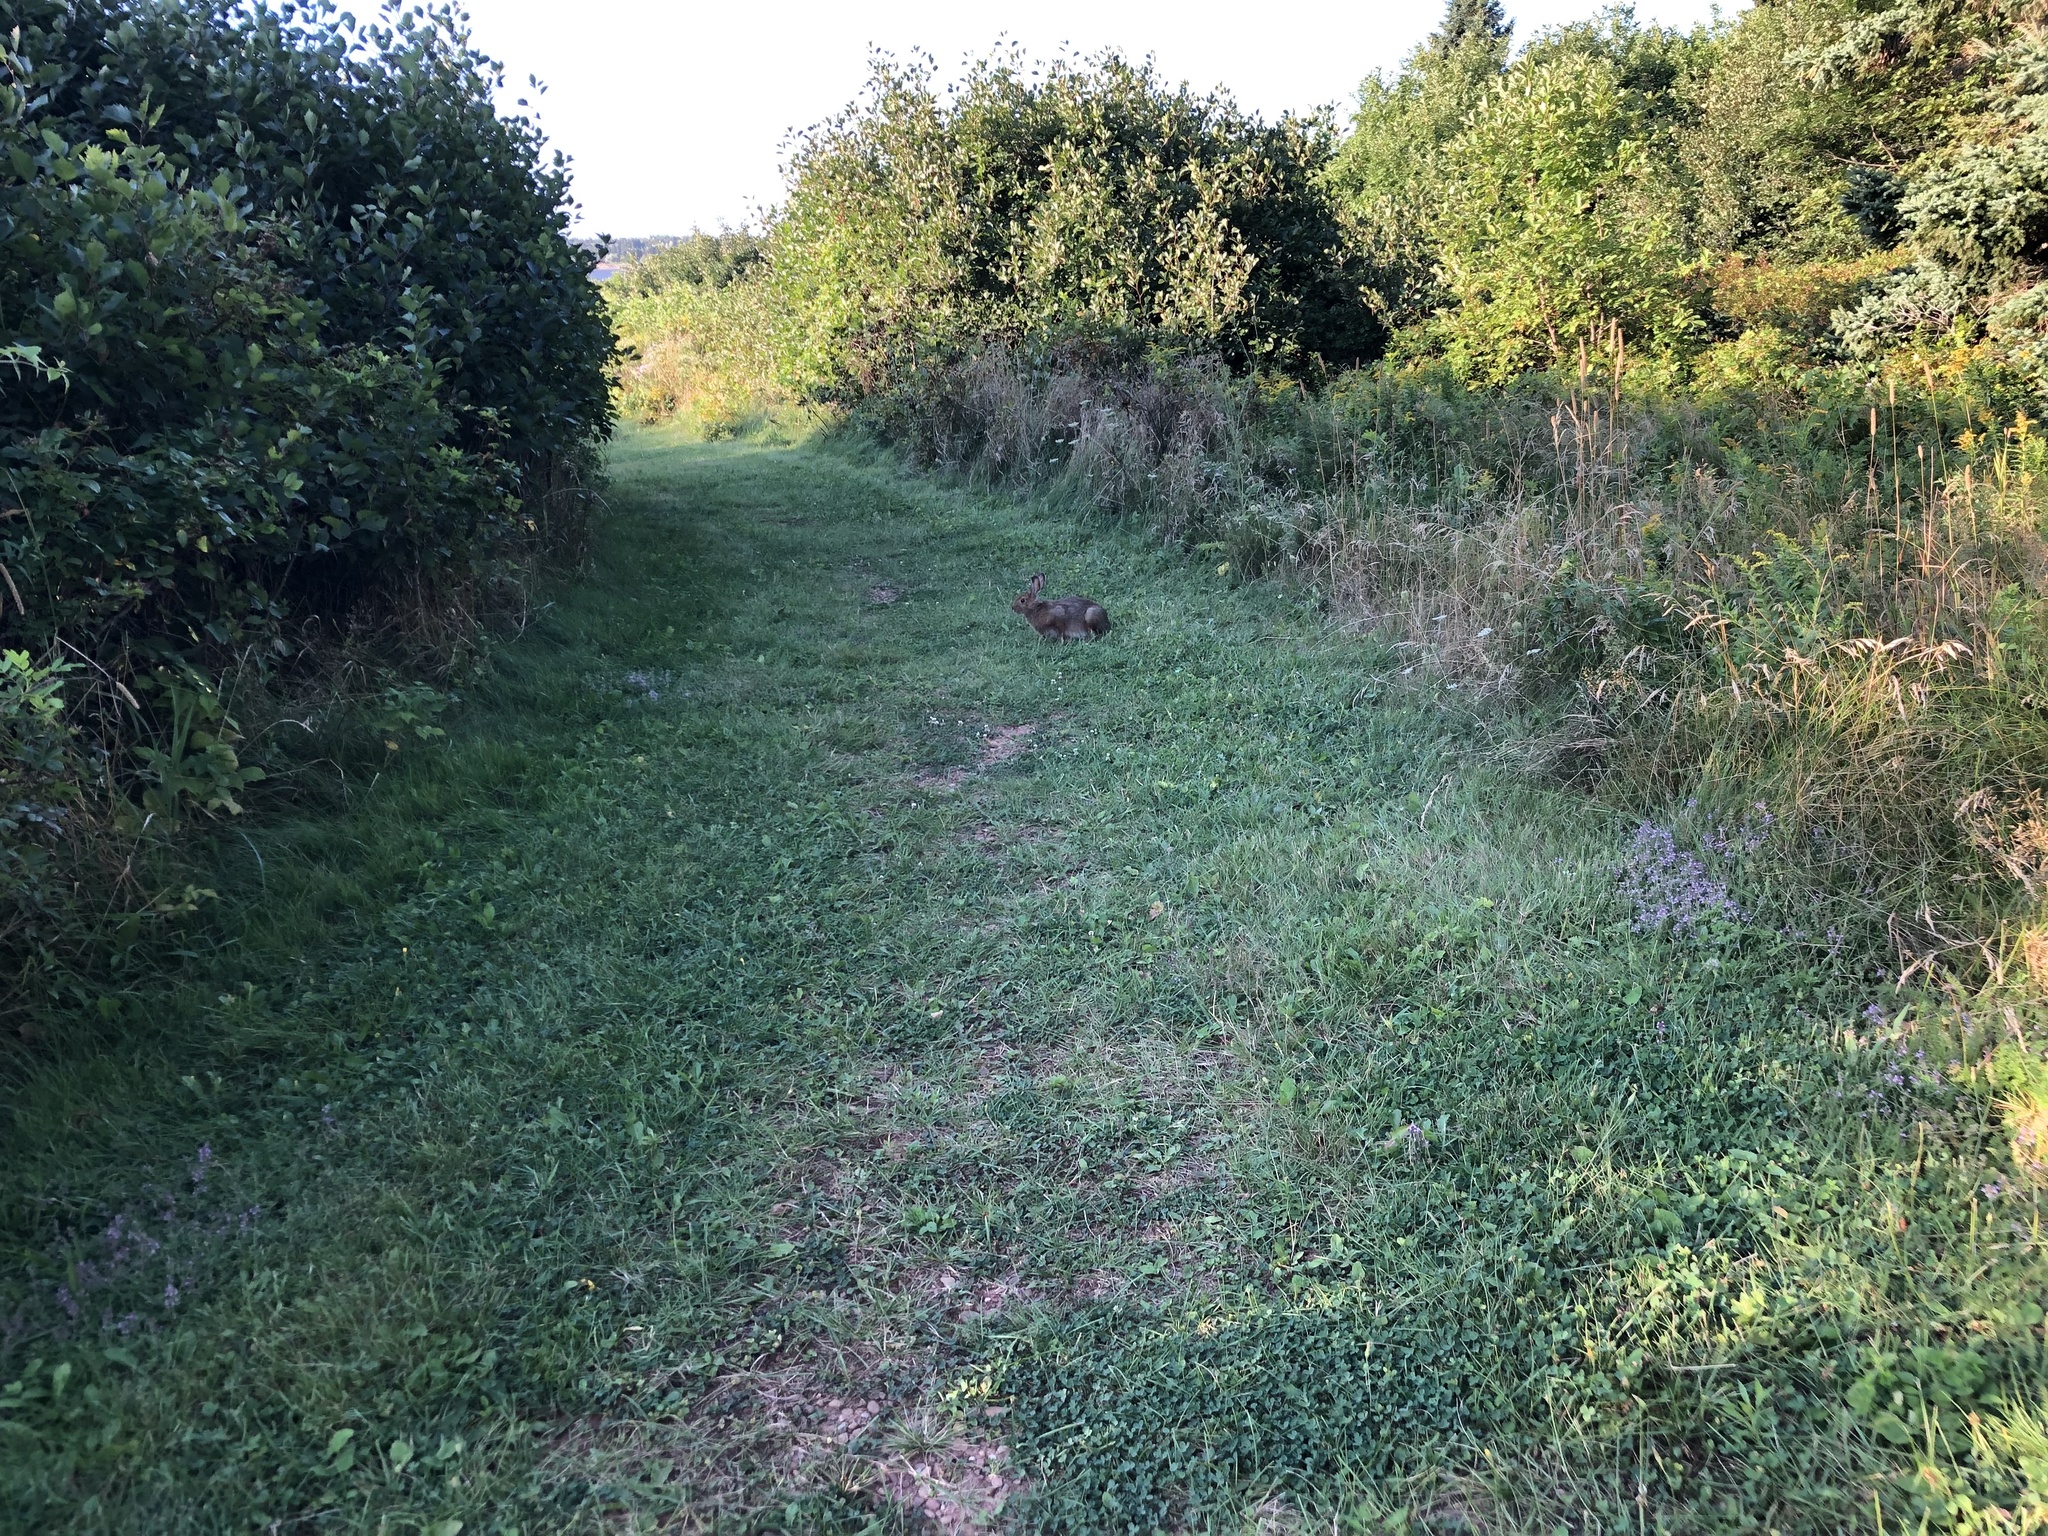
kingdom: Animalia
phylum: Chordata
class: Mammalia
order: Lagomorpha
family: Leporidae
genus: Lepus
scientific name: Lepus americanus
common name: Snowshoe hare
